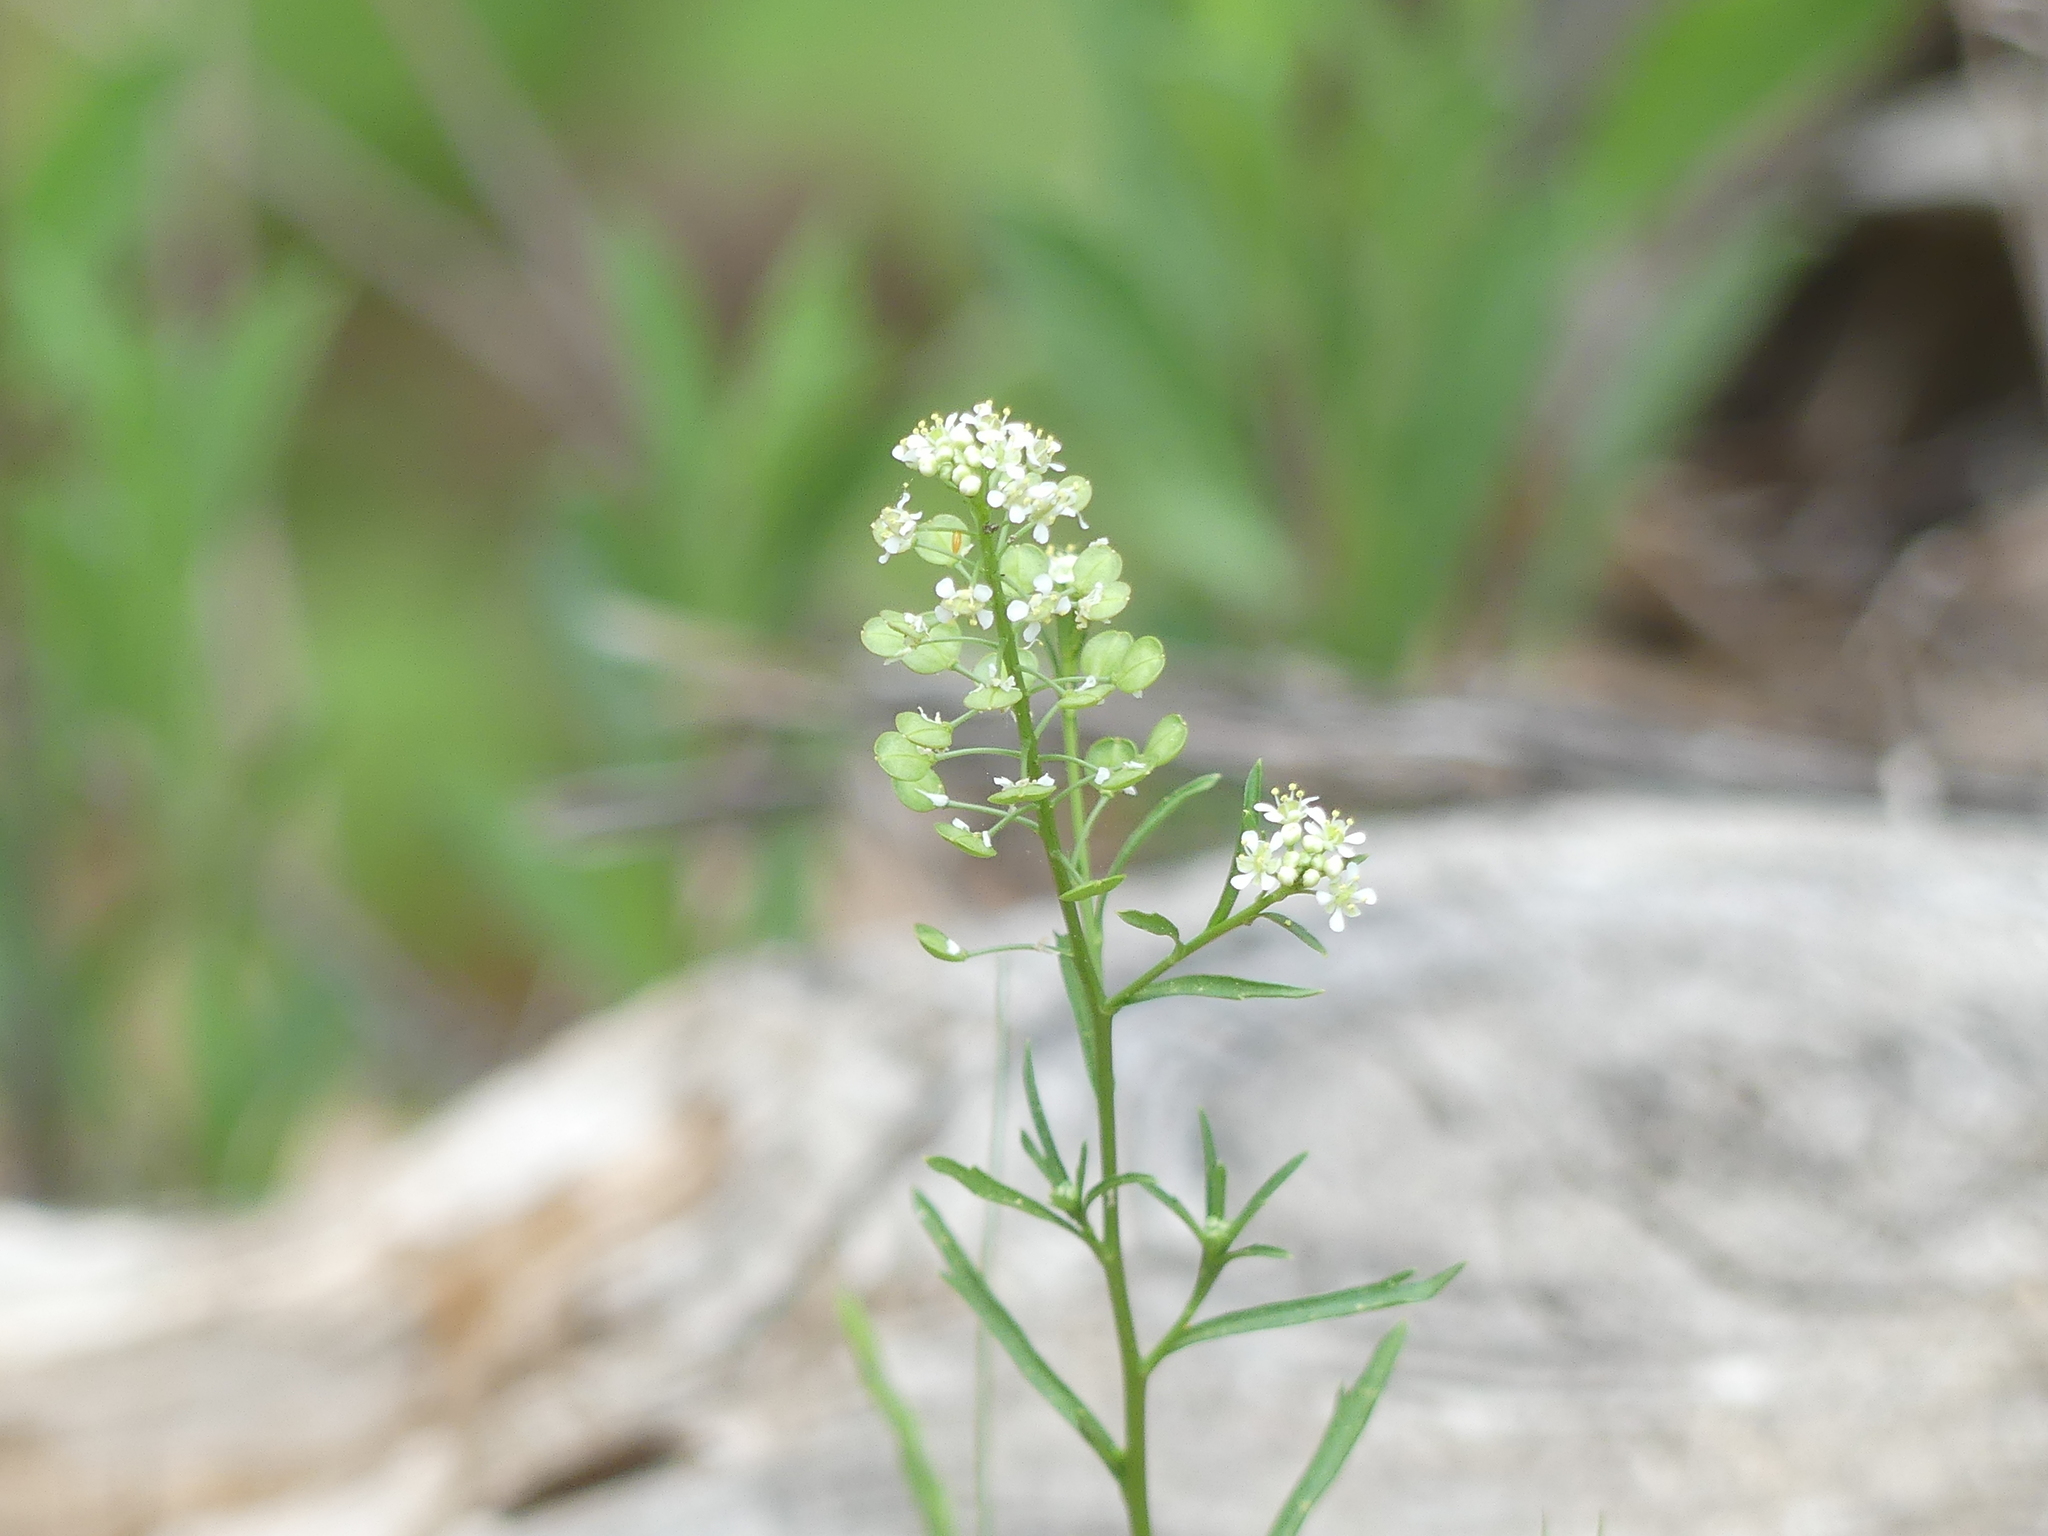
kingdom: Plantae
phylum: Tracheophyta
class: Magnoliopsida
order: Brassicales
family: Brassicaceae
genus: Lepidium
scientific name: Lepidium virginicum
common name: Least pepperwort
